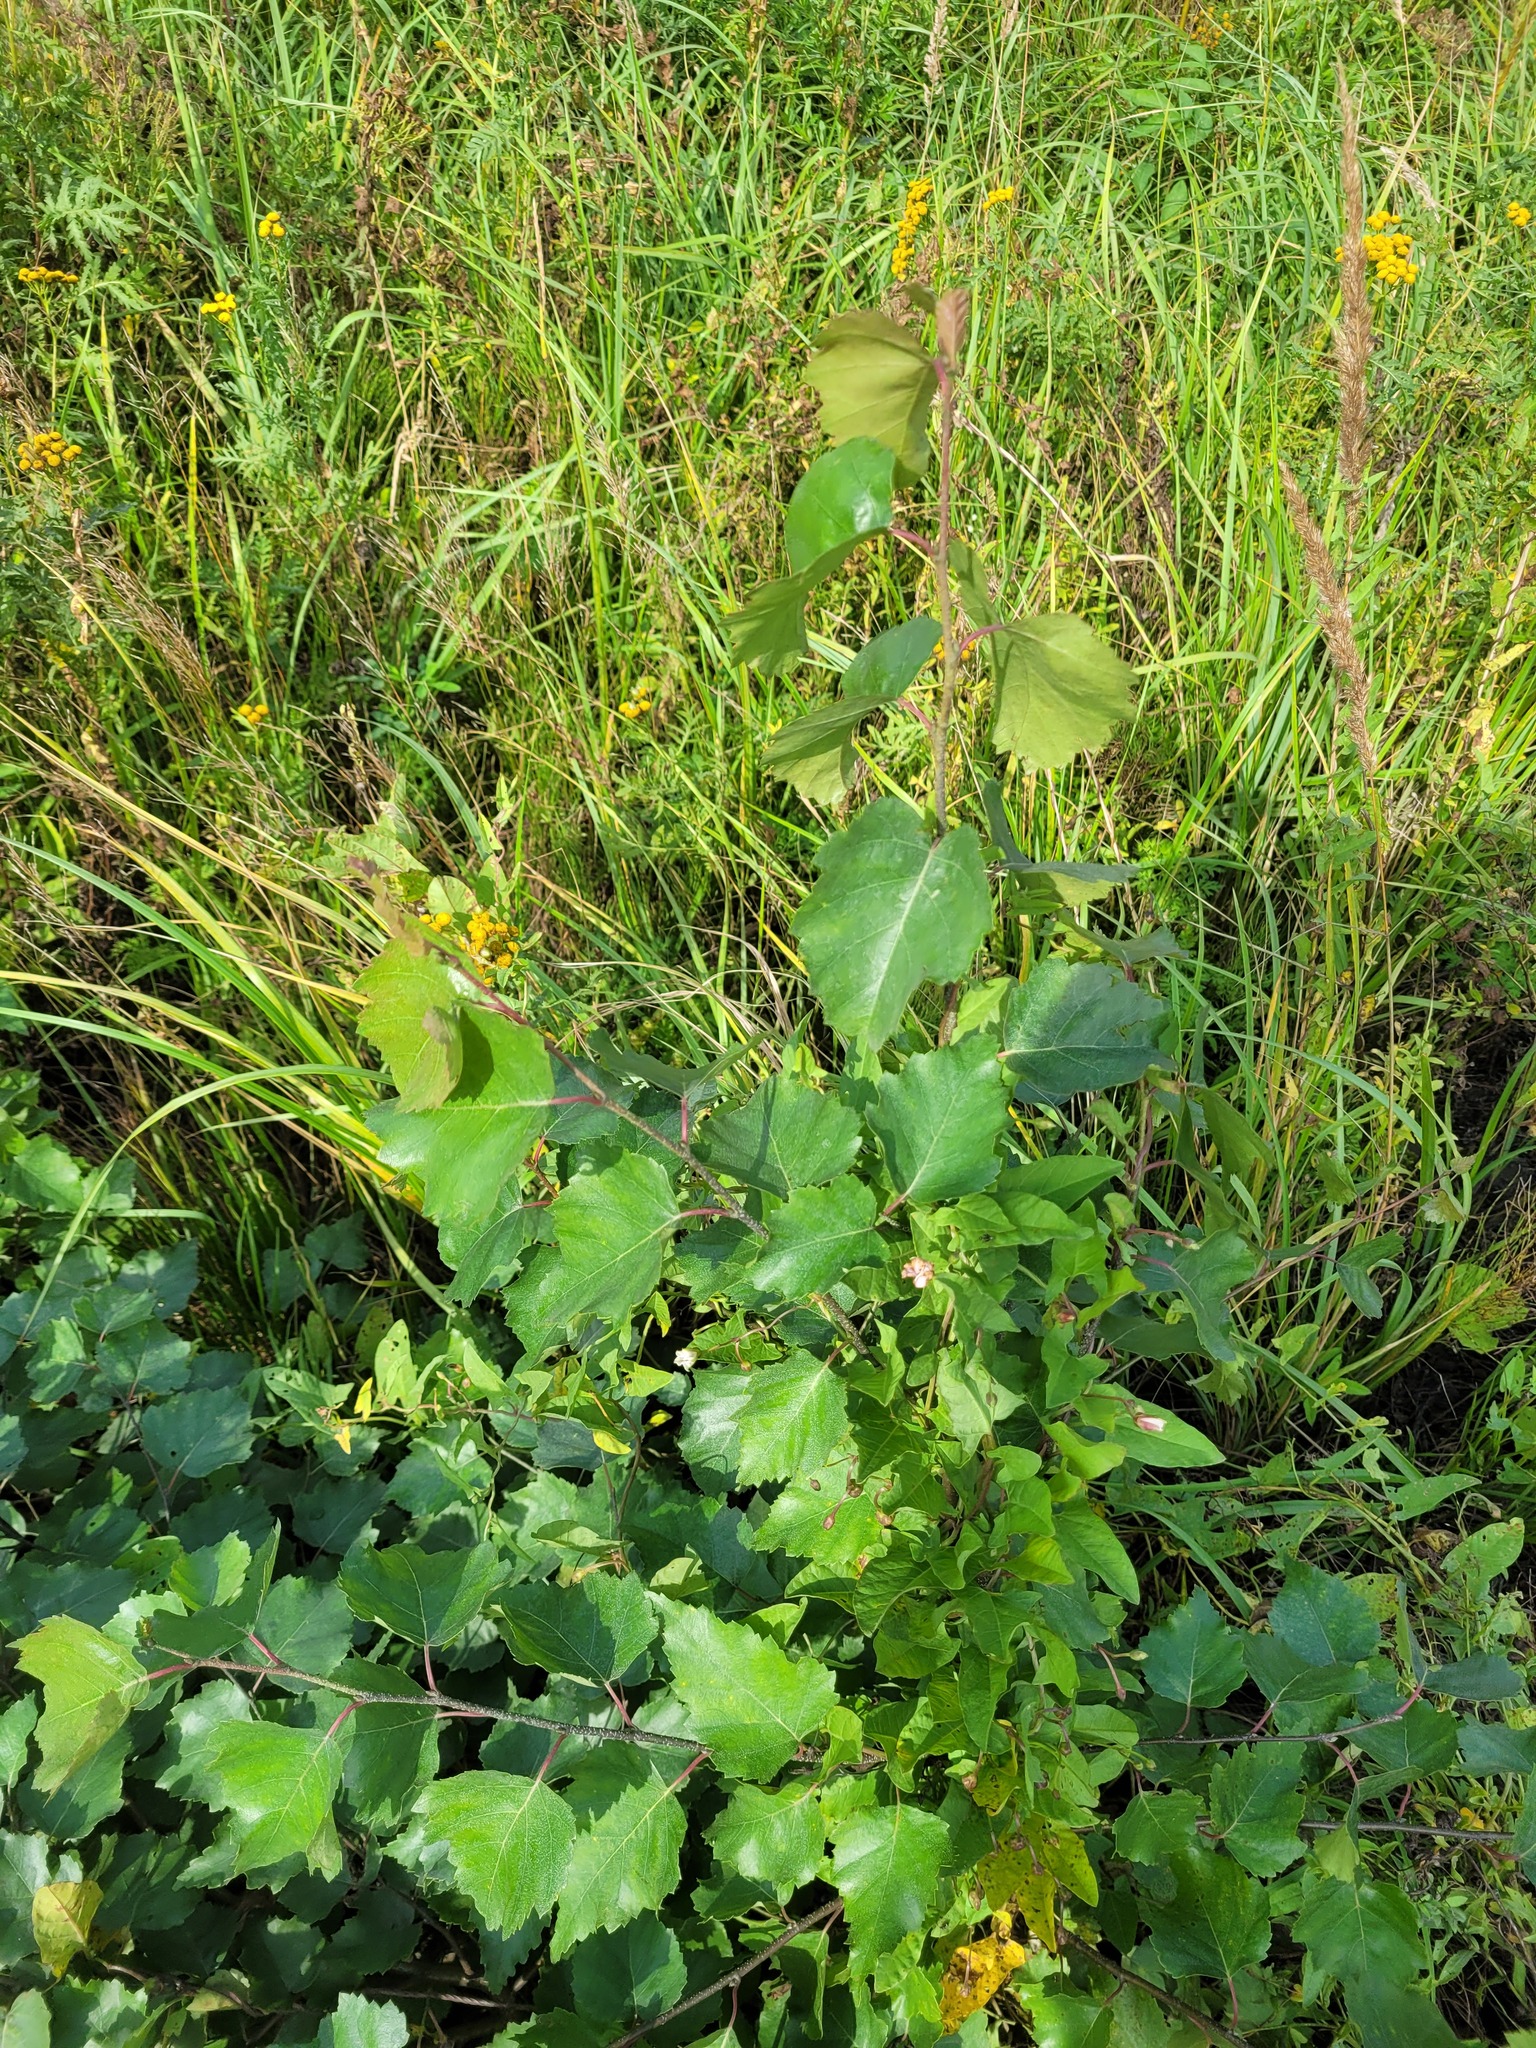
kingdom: Plantae
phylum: Tracheophyta
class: Magnoliopsida
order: Fagales
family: Betulaceae
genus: Betula
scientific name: Betula pendula
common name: Silver birch
